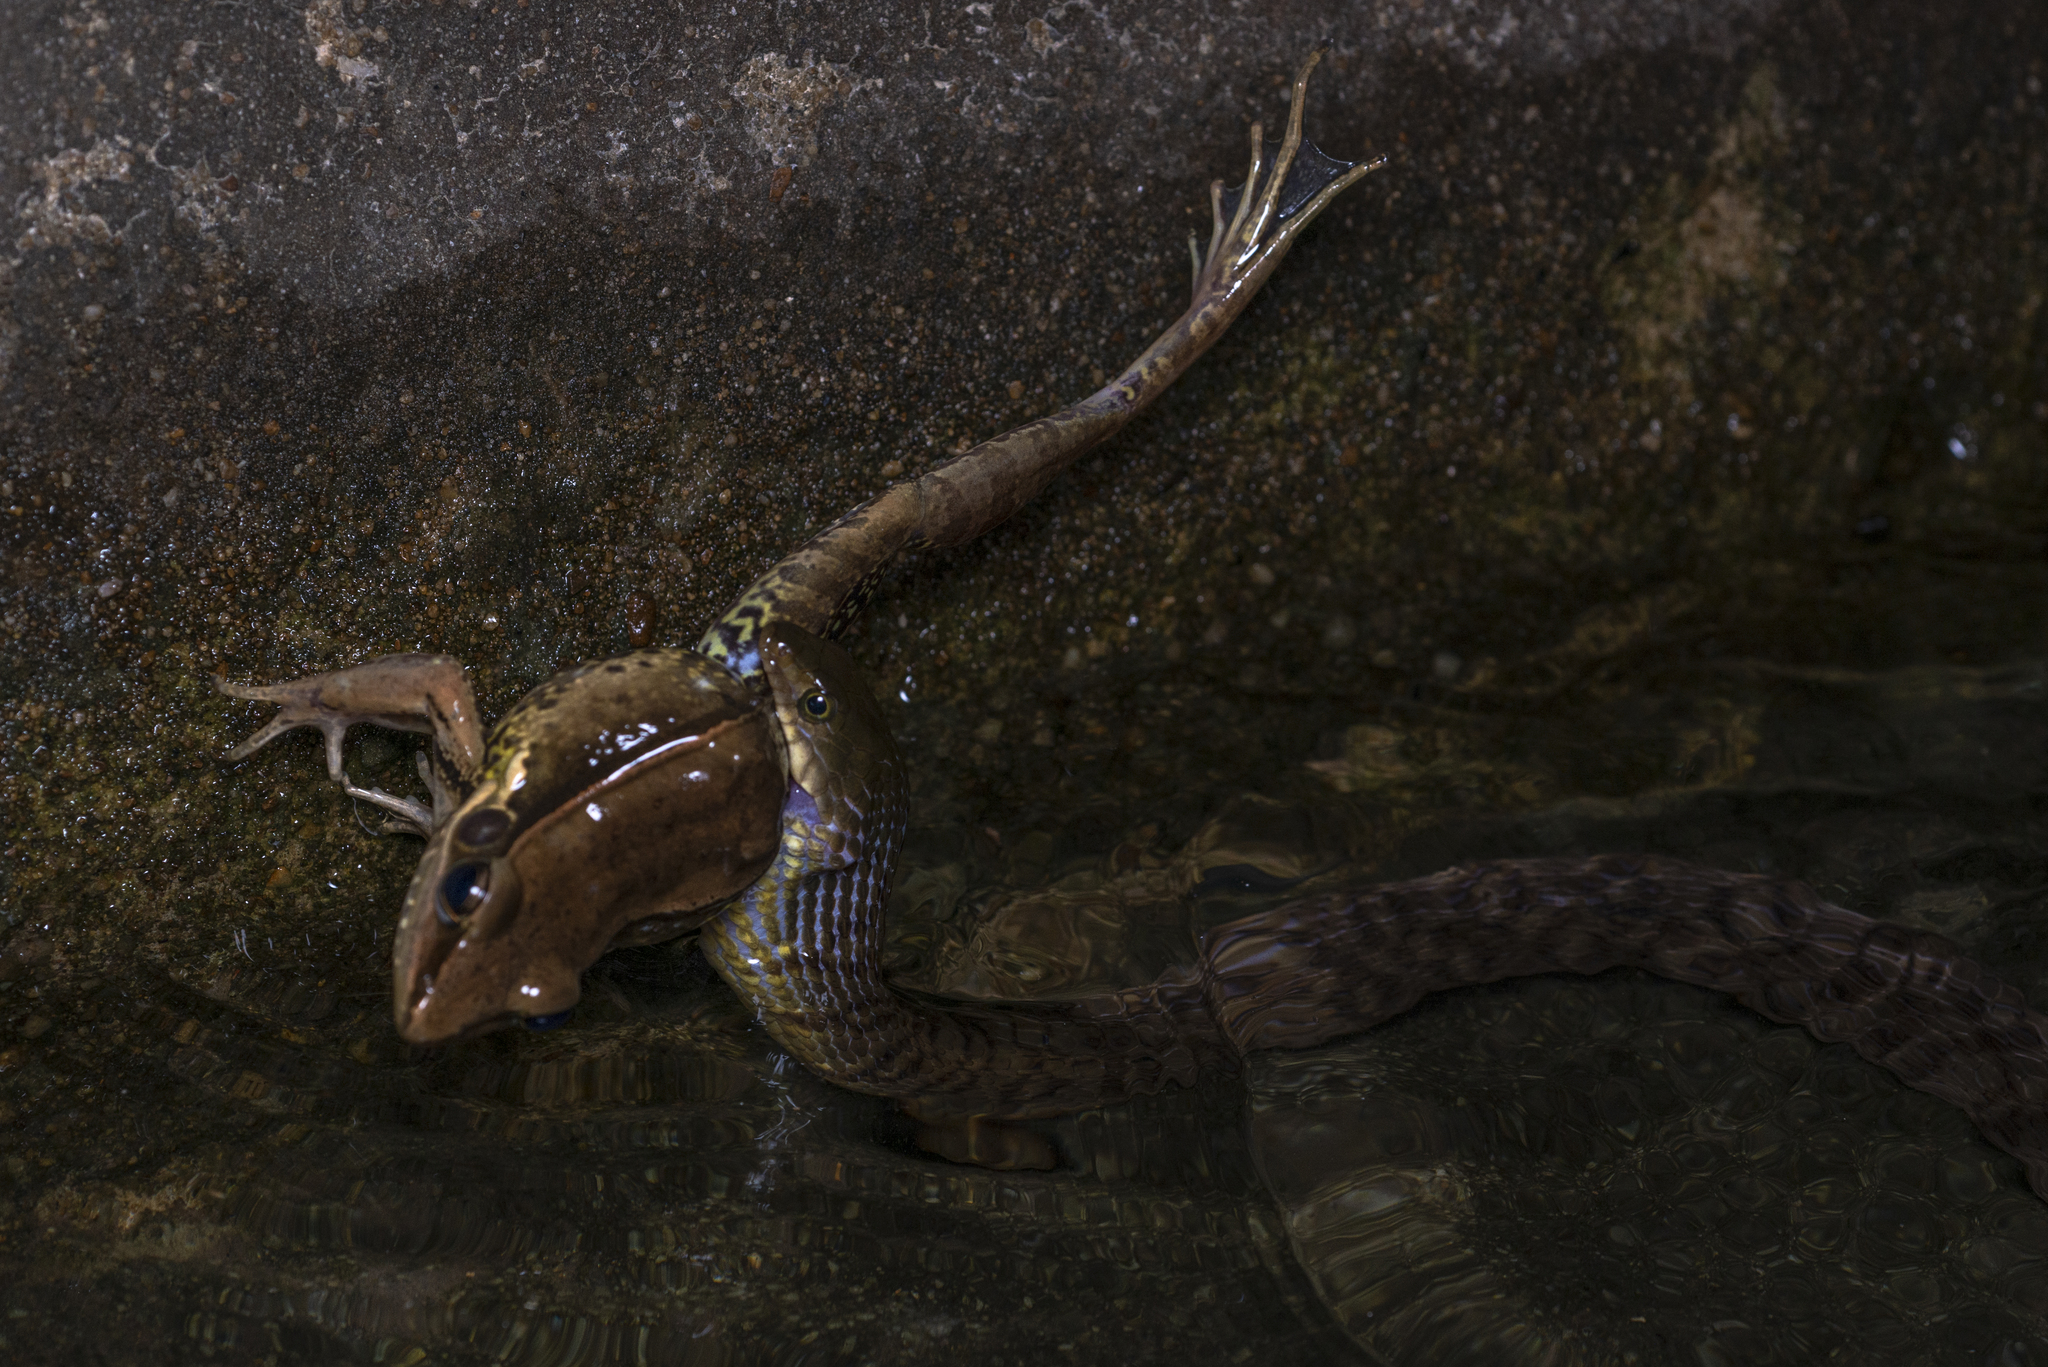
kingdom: Animalia
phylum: Chordata
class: Squamata
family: Colubridae
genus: Trimerodytes
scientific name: Trimerodytes percarinatus
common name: Eastern water snake
